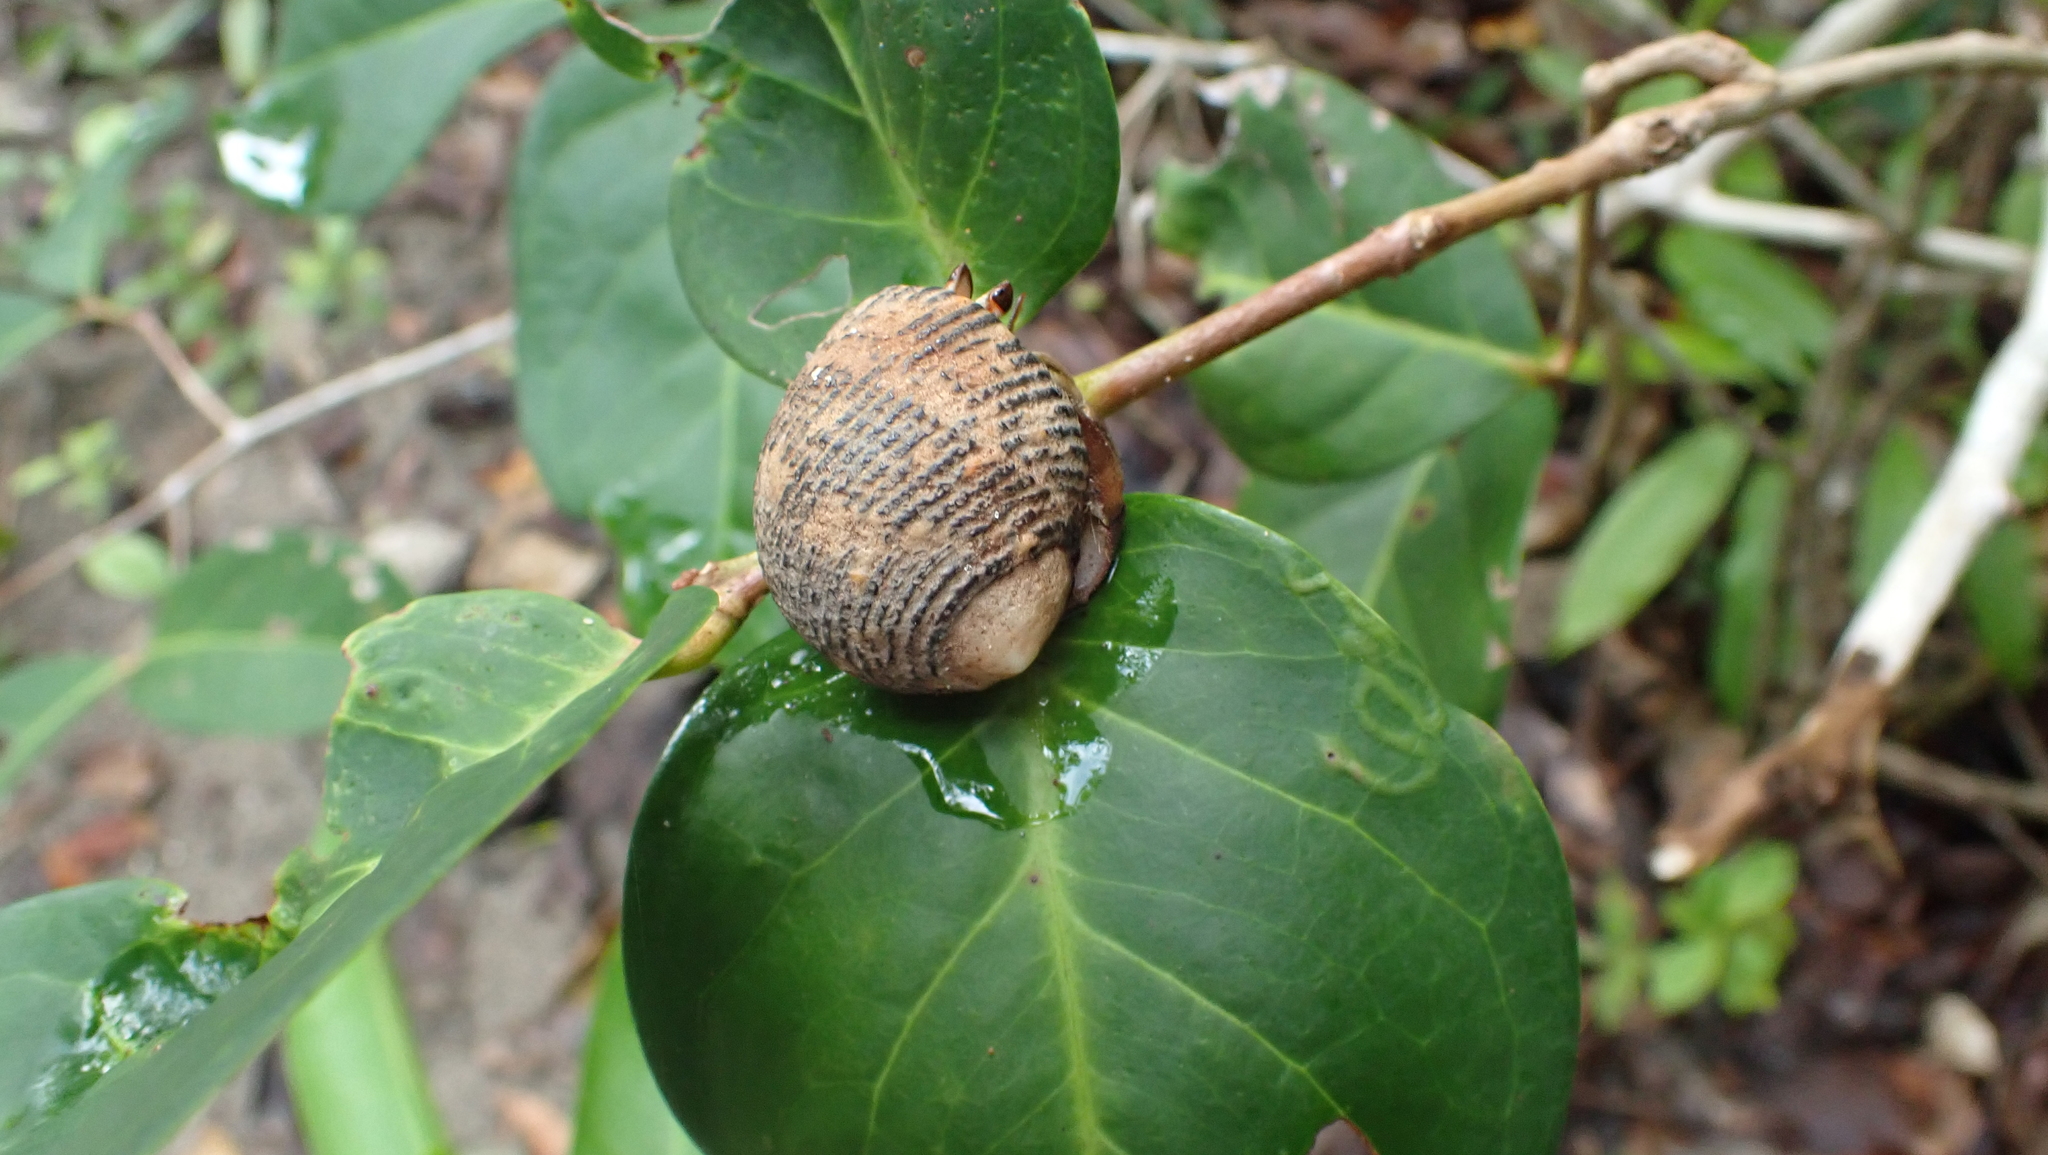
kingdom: Animalia
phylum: Arthropoda
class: Malacostraca
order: Decapoda
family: Coenobitidae
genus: Coenobita
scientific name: Coenobita compressus
